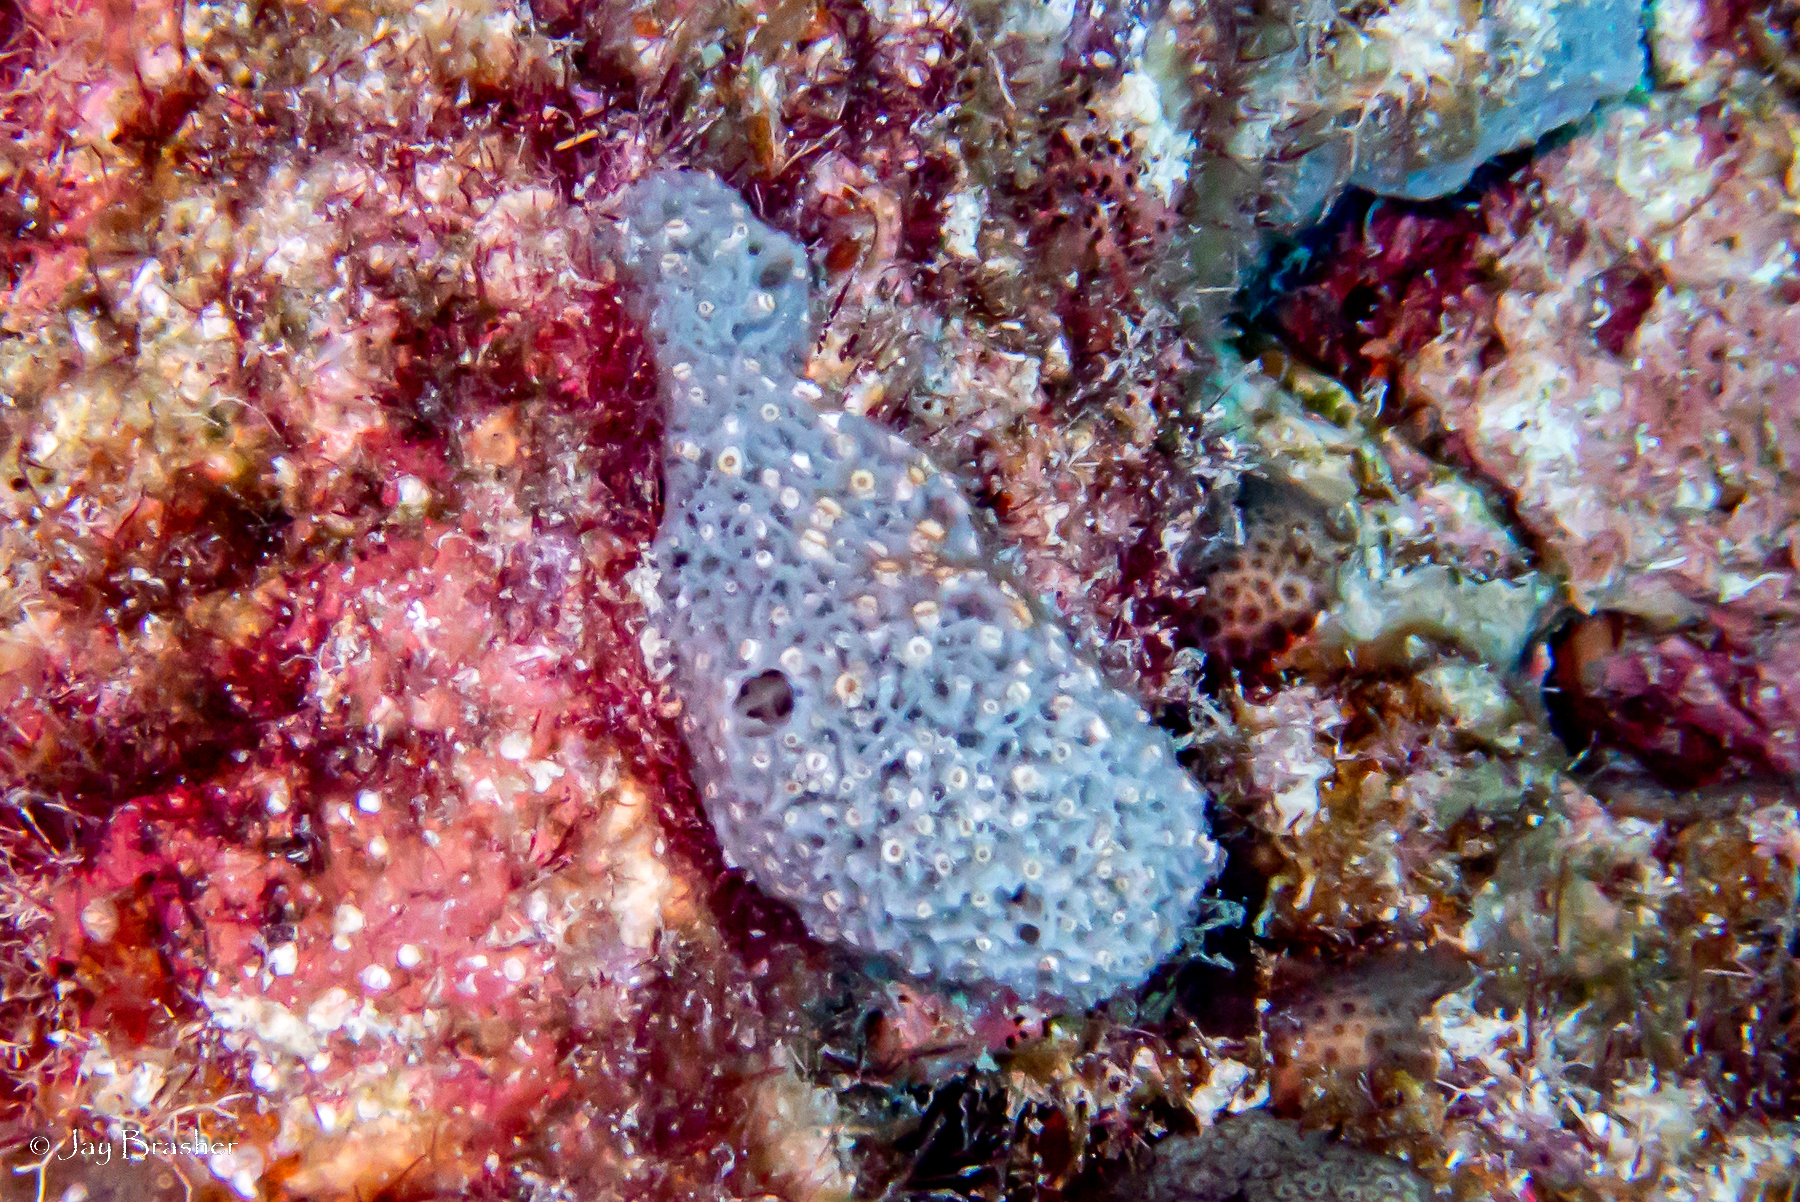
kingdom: Animalia
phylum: Porifera
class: Demospongiae
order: Haplosclerida
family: Niphatidae
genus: Niphates
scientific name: Niphates erecta
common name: Lavender rope sponge
